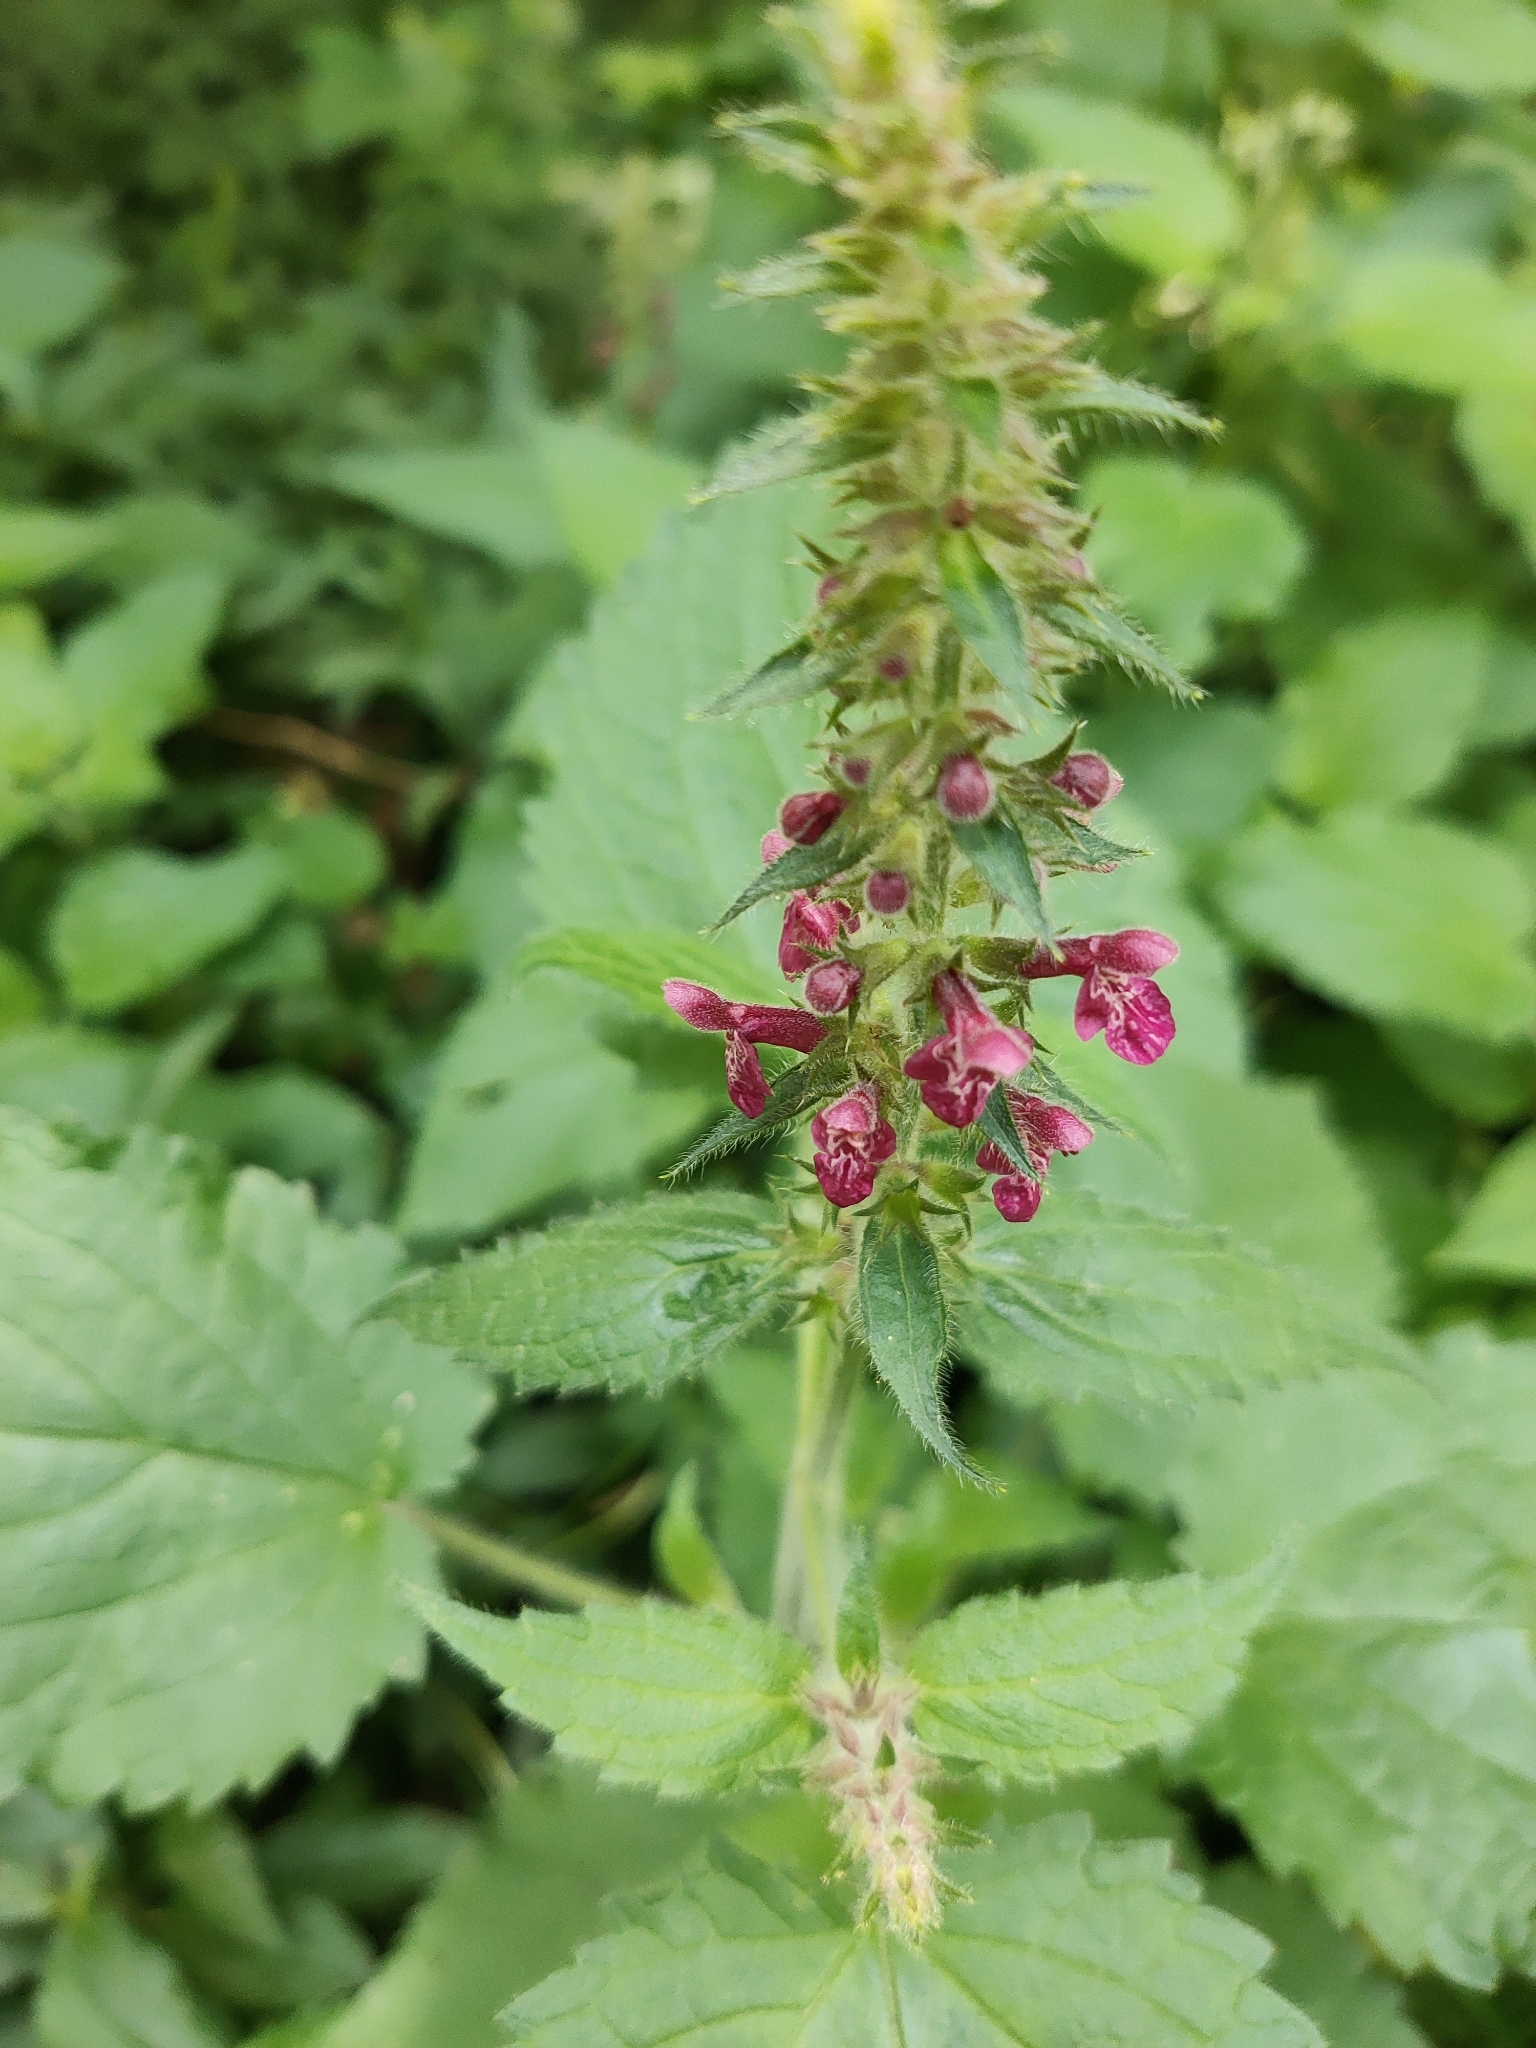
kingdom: Plantae
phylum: Tracheophyta
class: Magnoliopsida
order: Lamiales
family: Lamiaceae
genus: Stachys
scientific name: Stachys sylvatica
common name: Hedge woundwort
